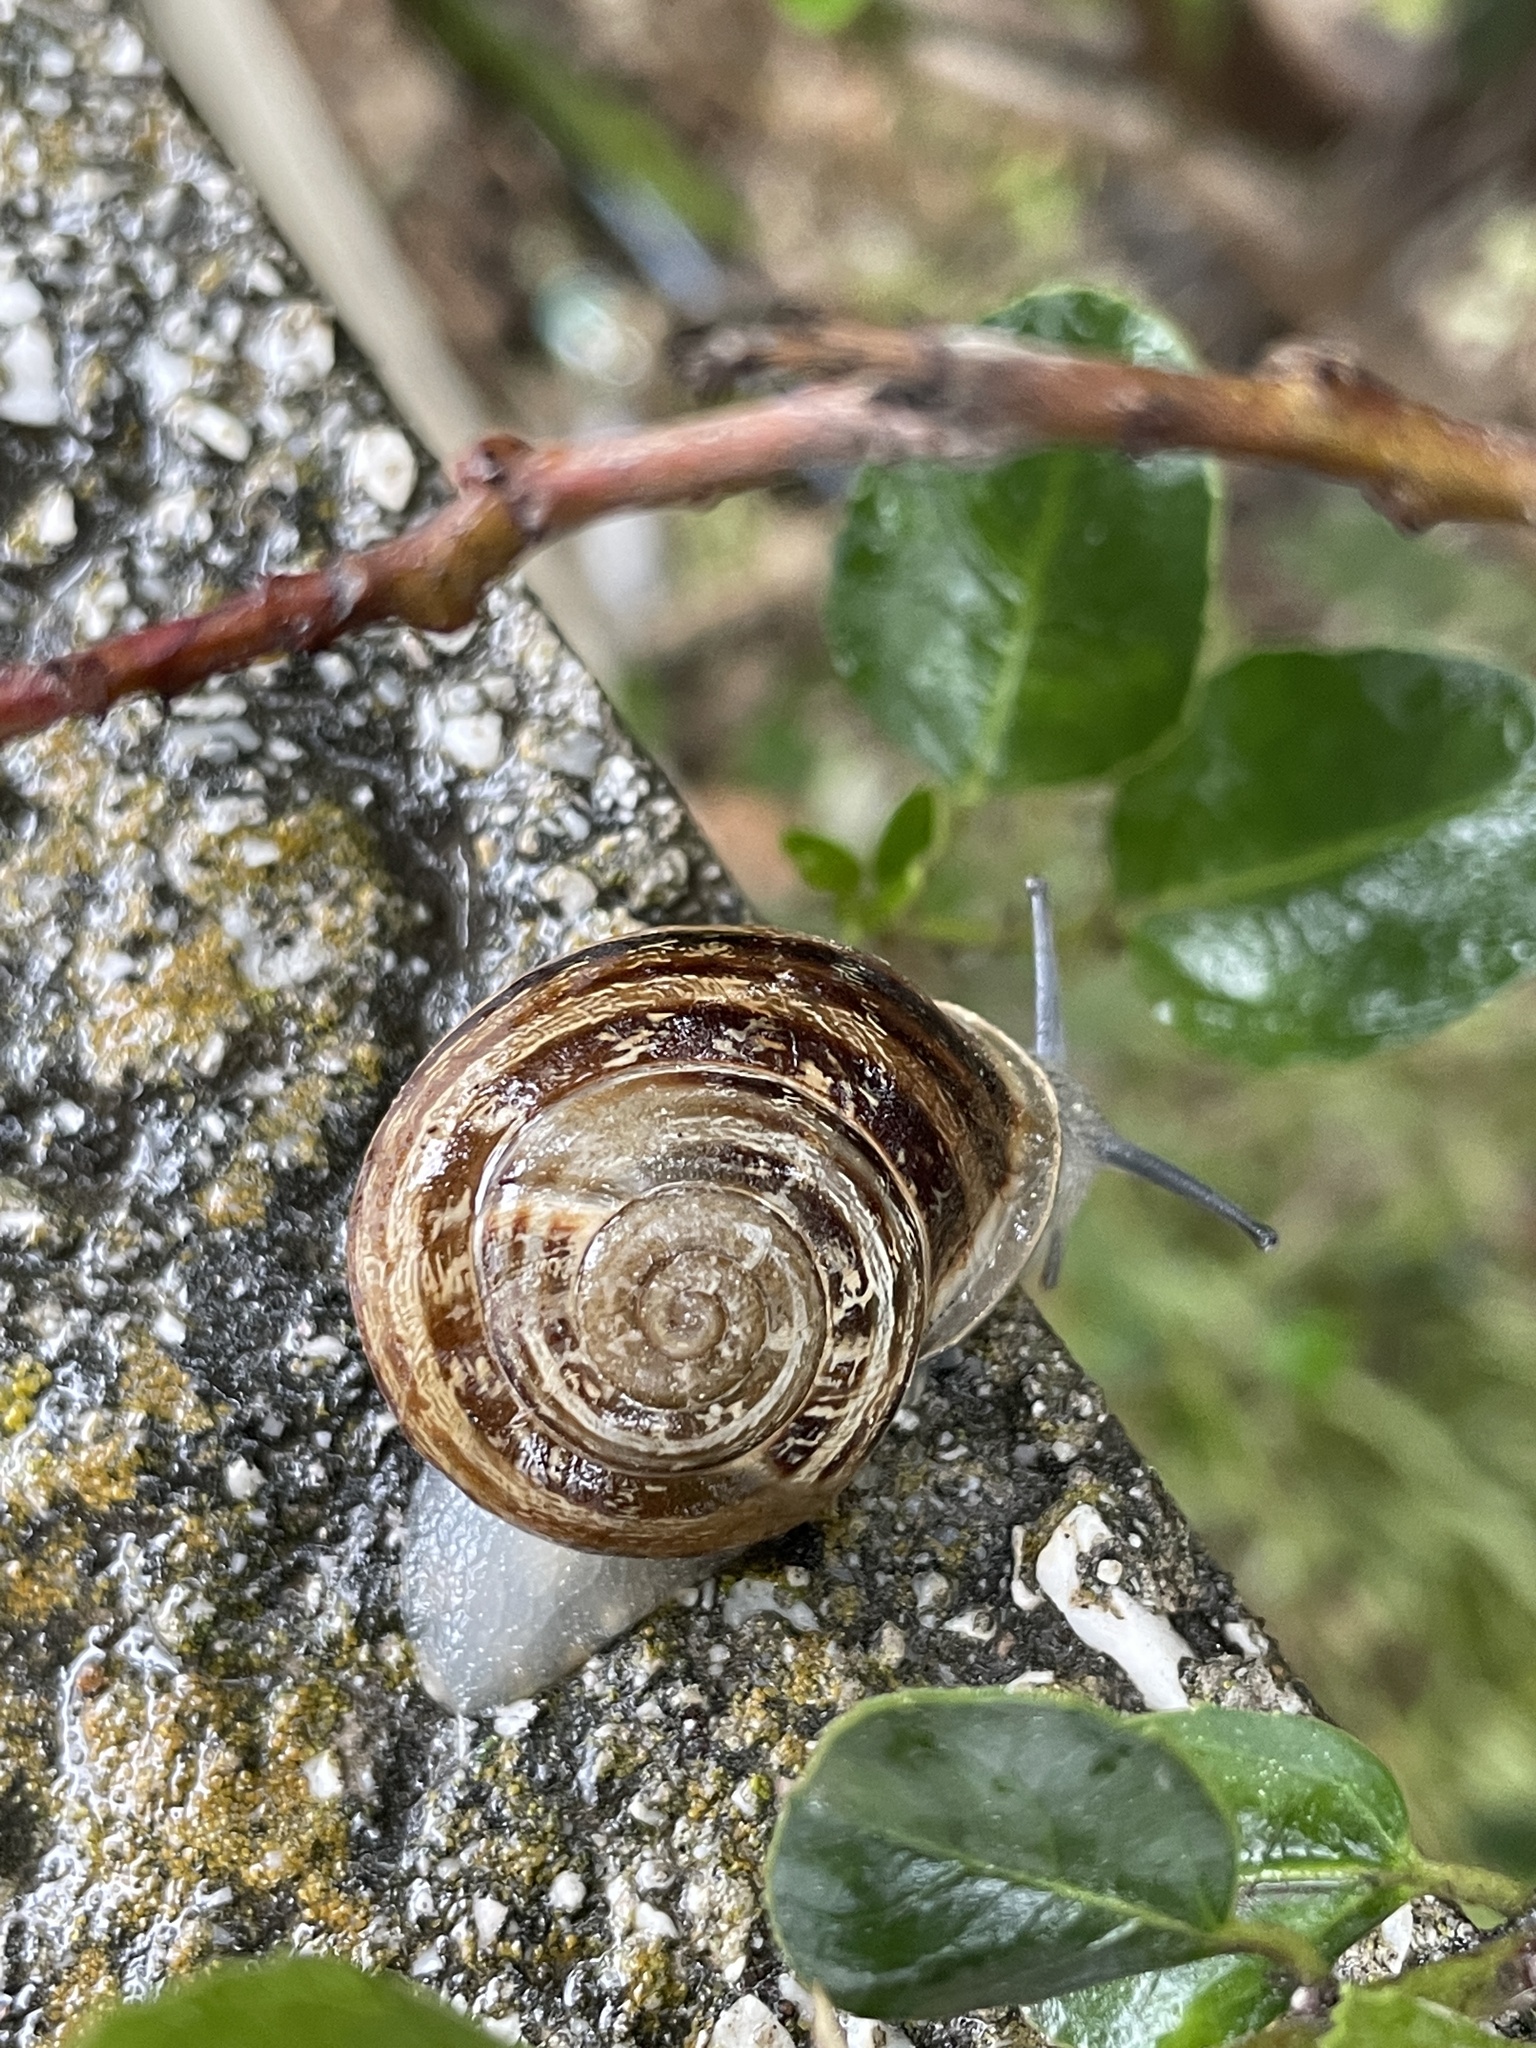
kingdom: Animalia
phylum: Mollusca
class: Gastropoda
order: Stylommatophora
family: Helicidae
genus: Eobania
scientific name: Eobania vermiculata
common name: Chocolateband snail
